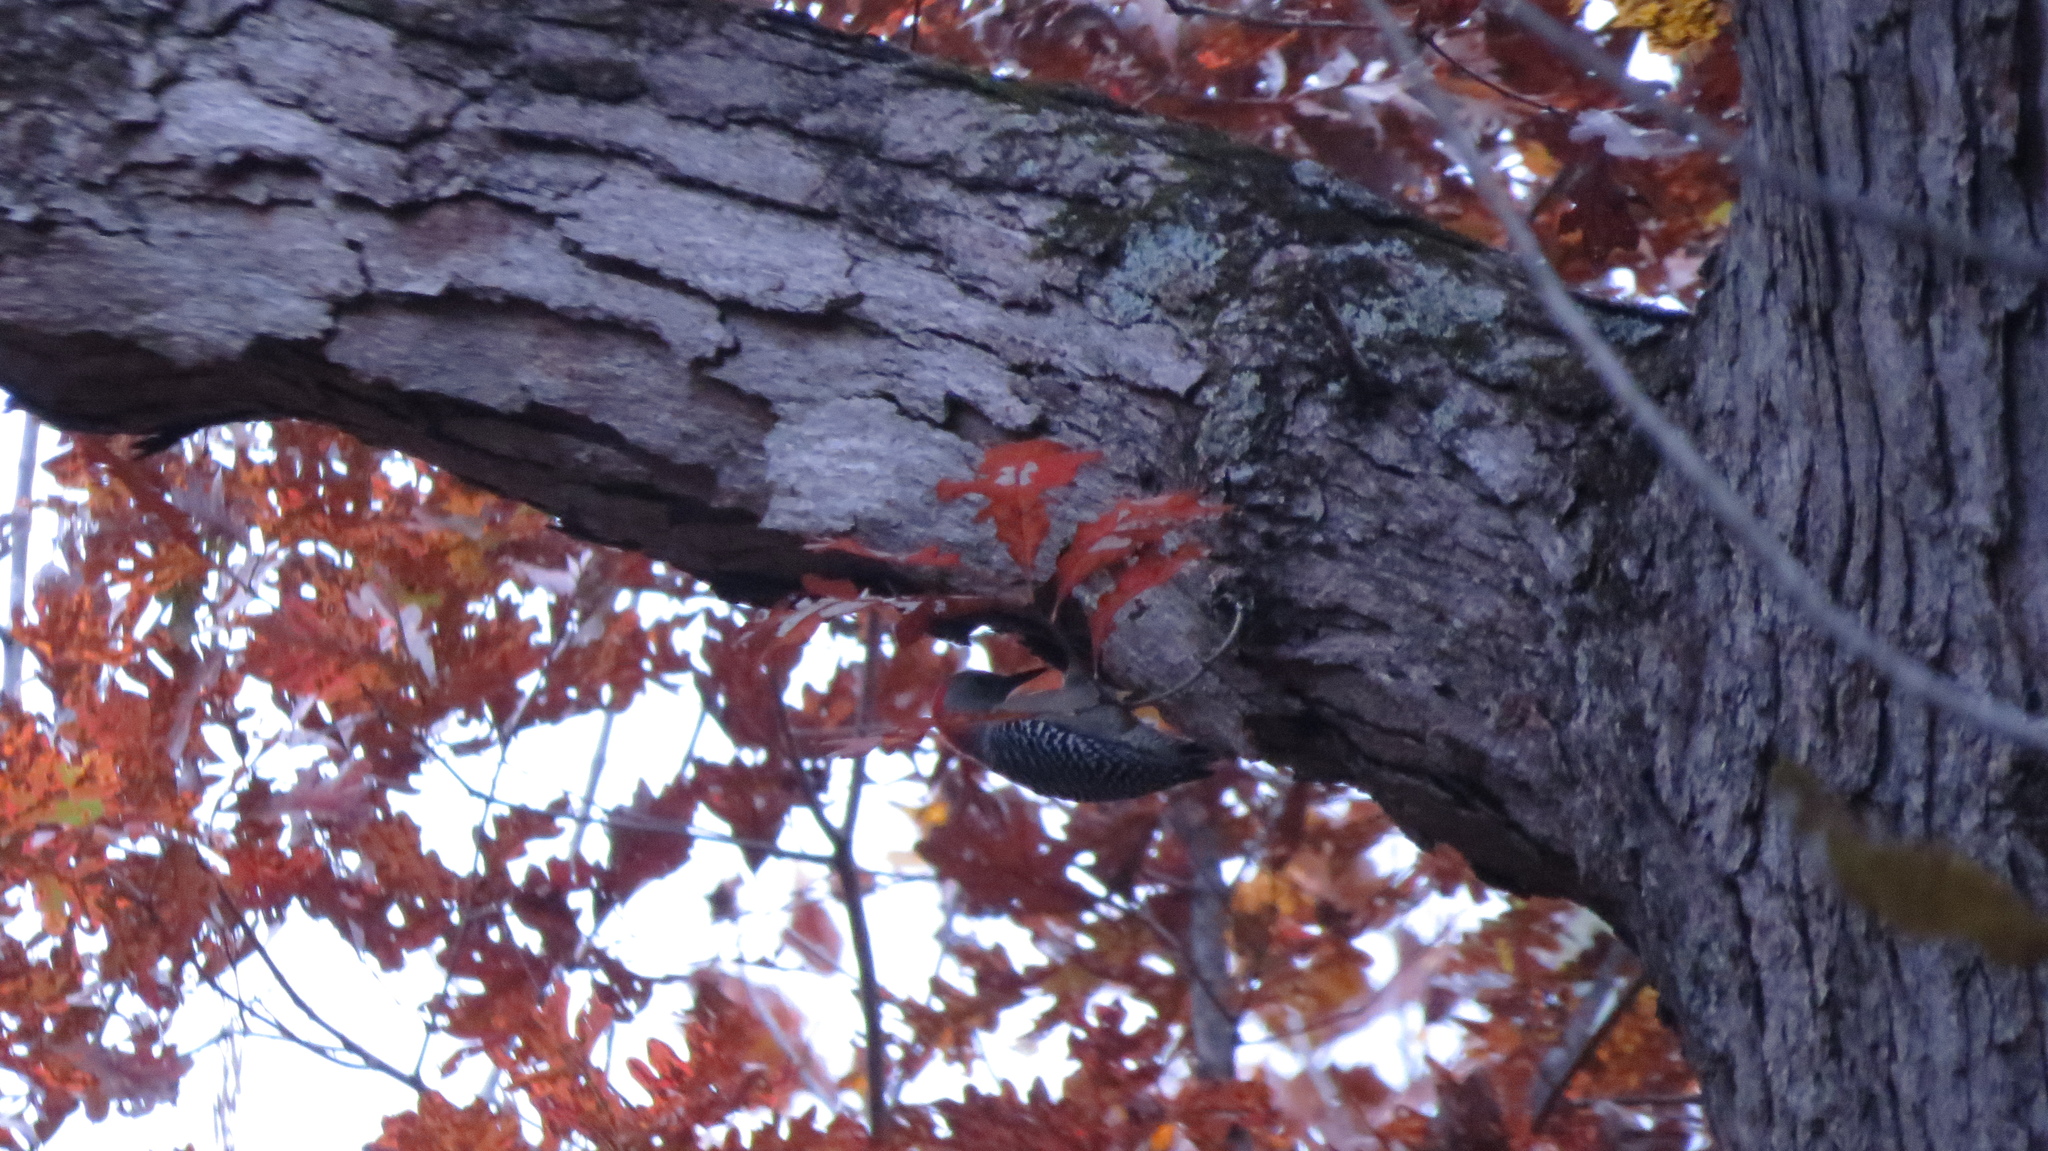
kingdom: Animalia
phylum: Chordata
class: Aves
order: Piciformes
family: Picidae
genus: Melanerpes
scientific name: Melanerpes carolinus
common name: Red-bellied woodpecker
